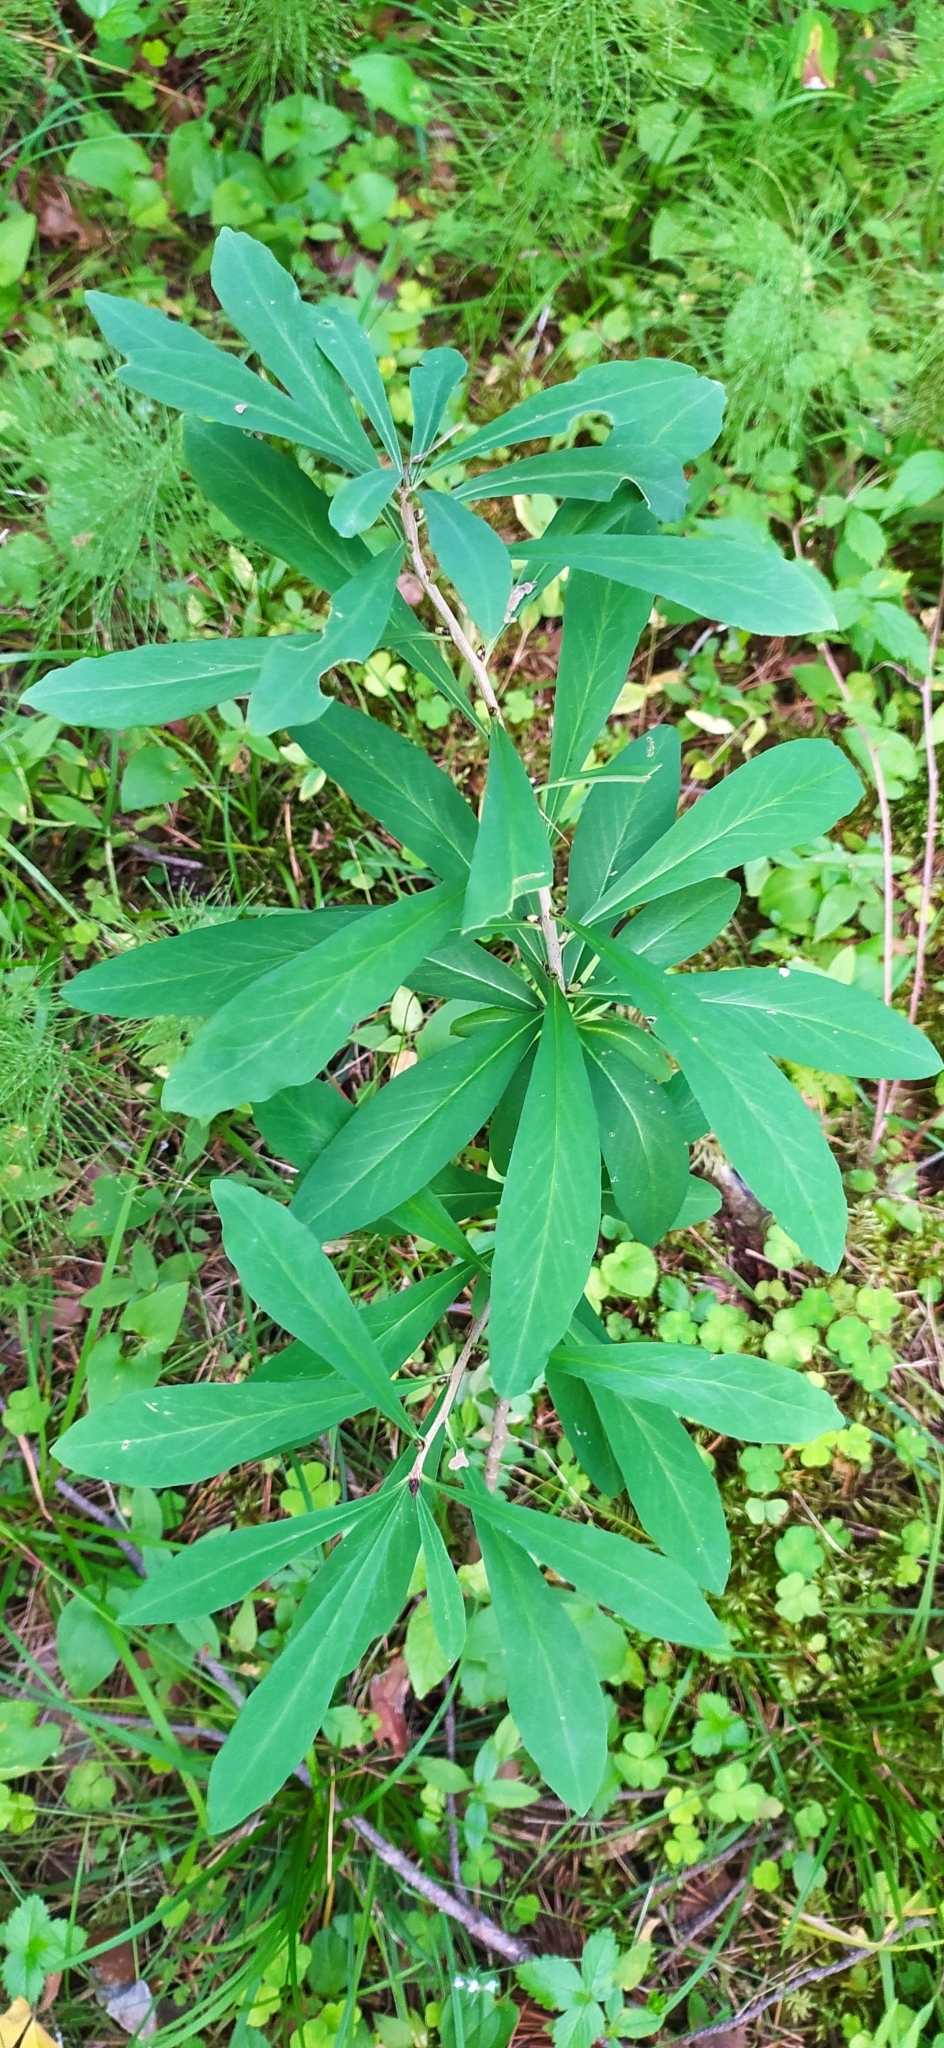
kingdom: Plantae
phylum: Tracheophyta
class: Magnoliopsida
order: Malvales
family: Thymelaeaceae
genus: Daphne
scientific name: Daphne mezereum
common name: Mezereon
